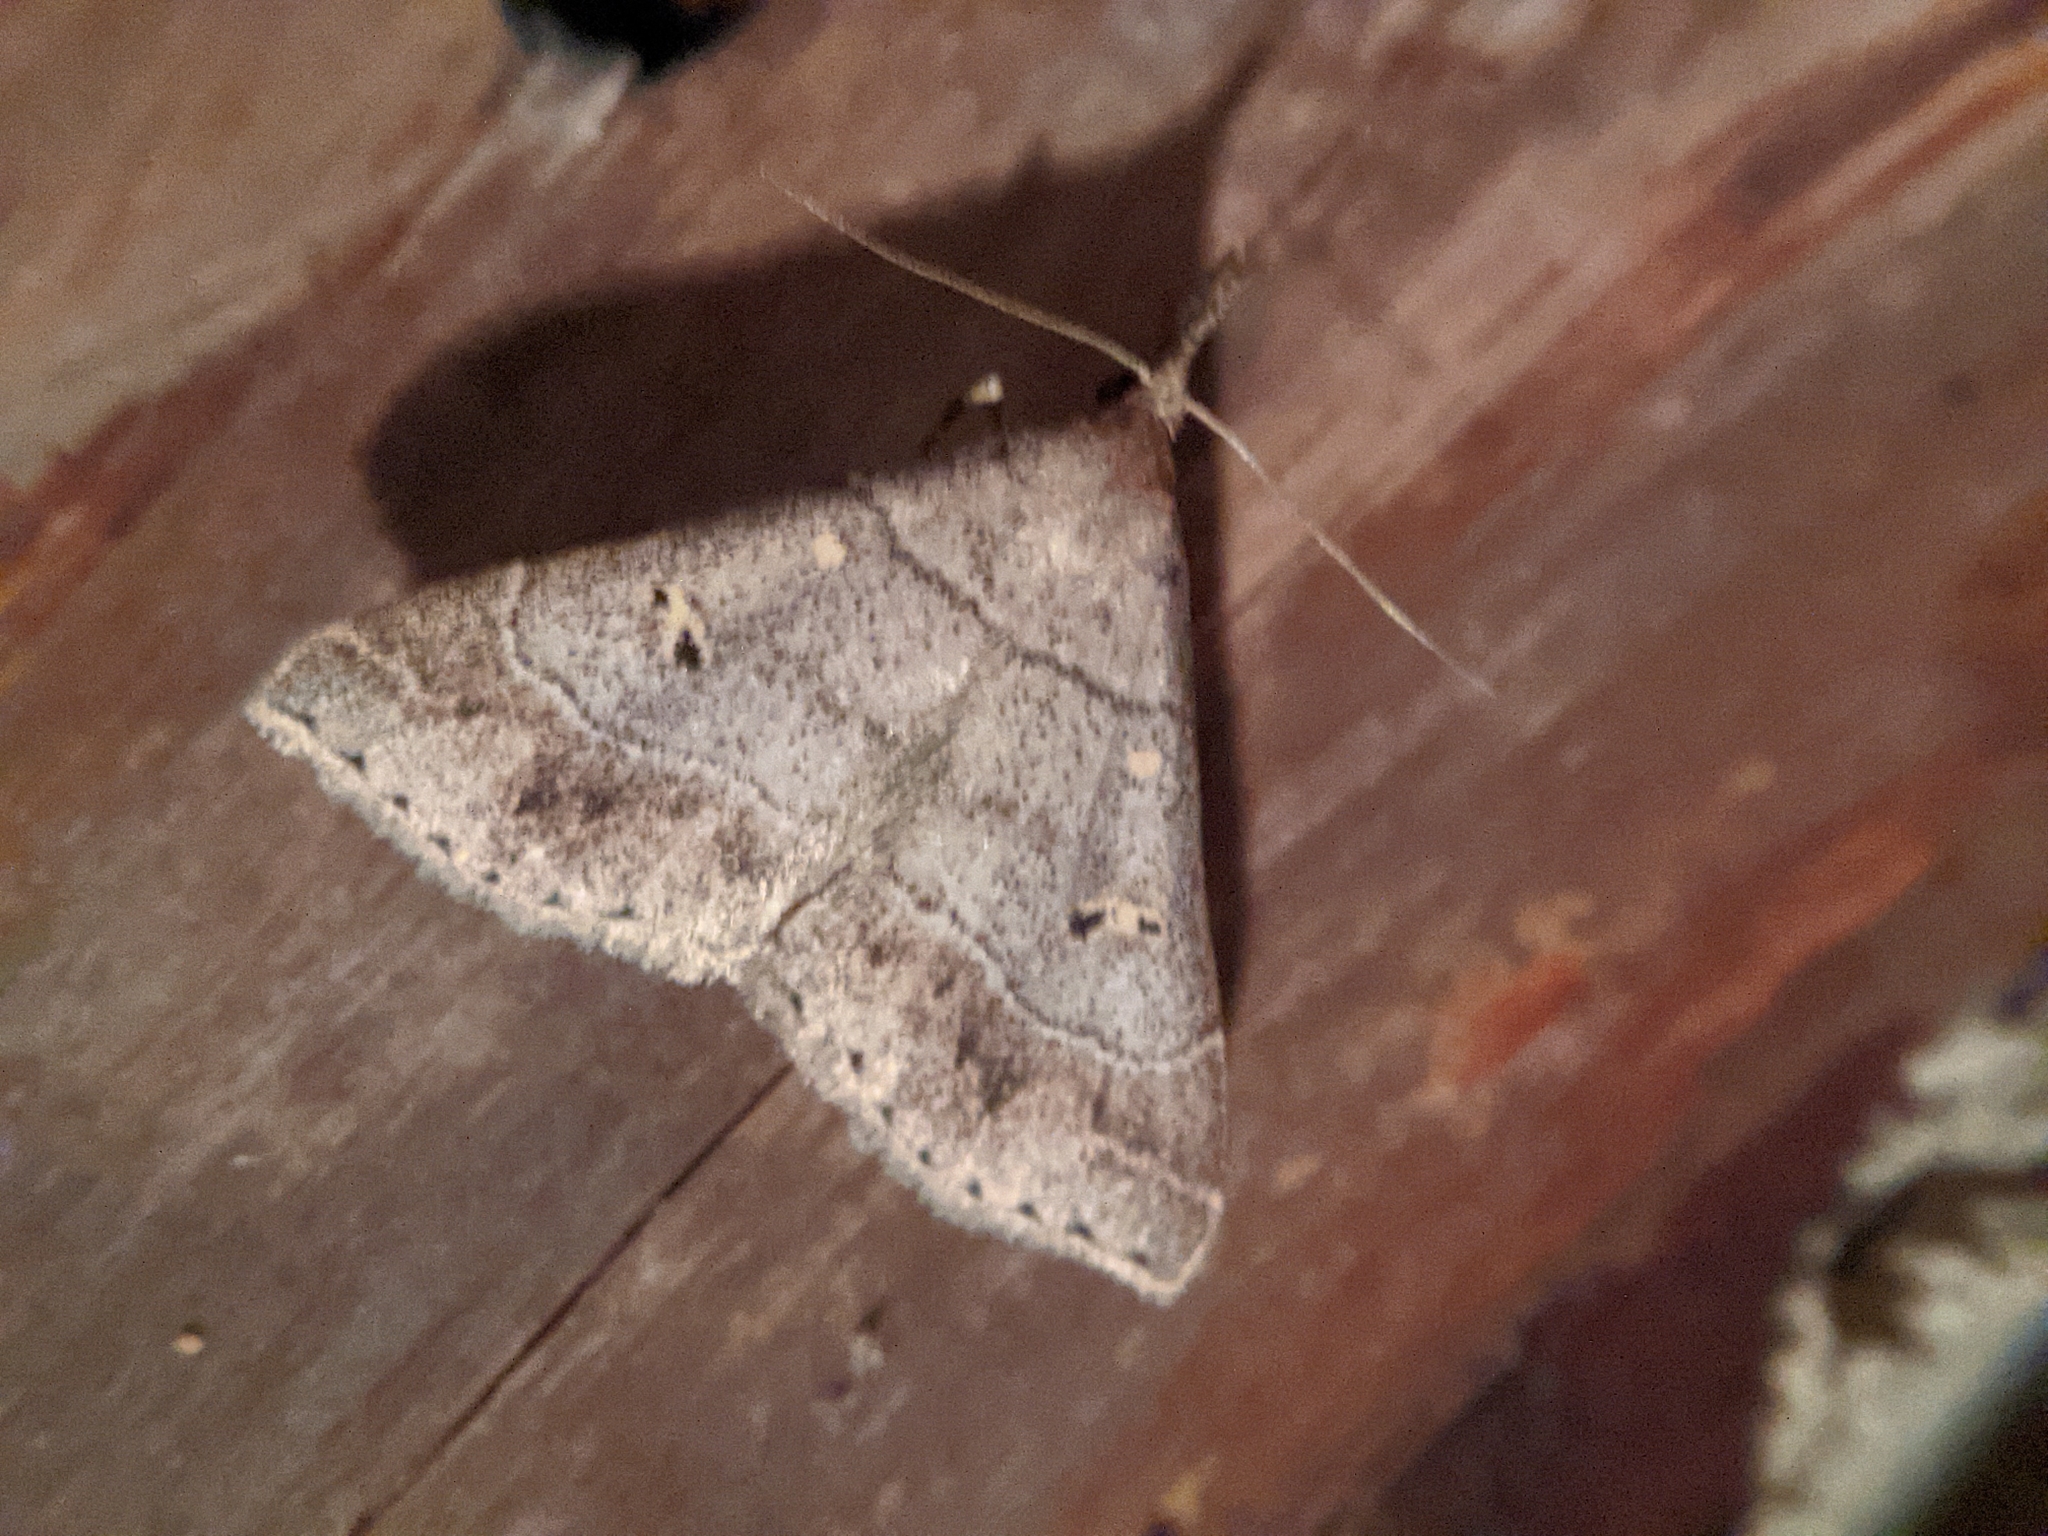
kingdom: Animalia
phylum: Arthropoda
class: Insecta
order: Lepidoptera
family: Erebidae
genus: Renia
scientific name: Renia flavipunctalis
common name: Yellow-spotted renia moth
